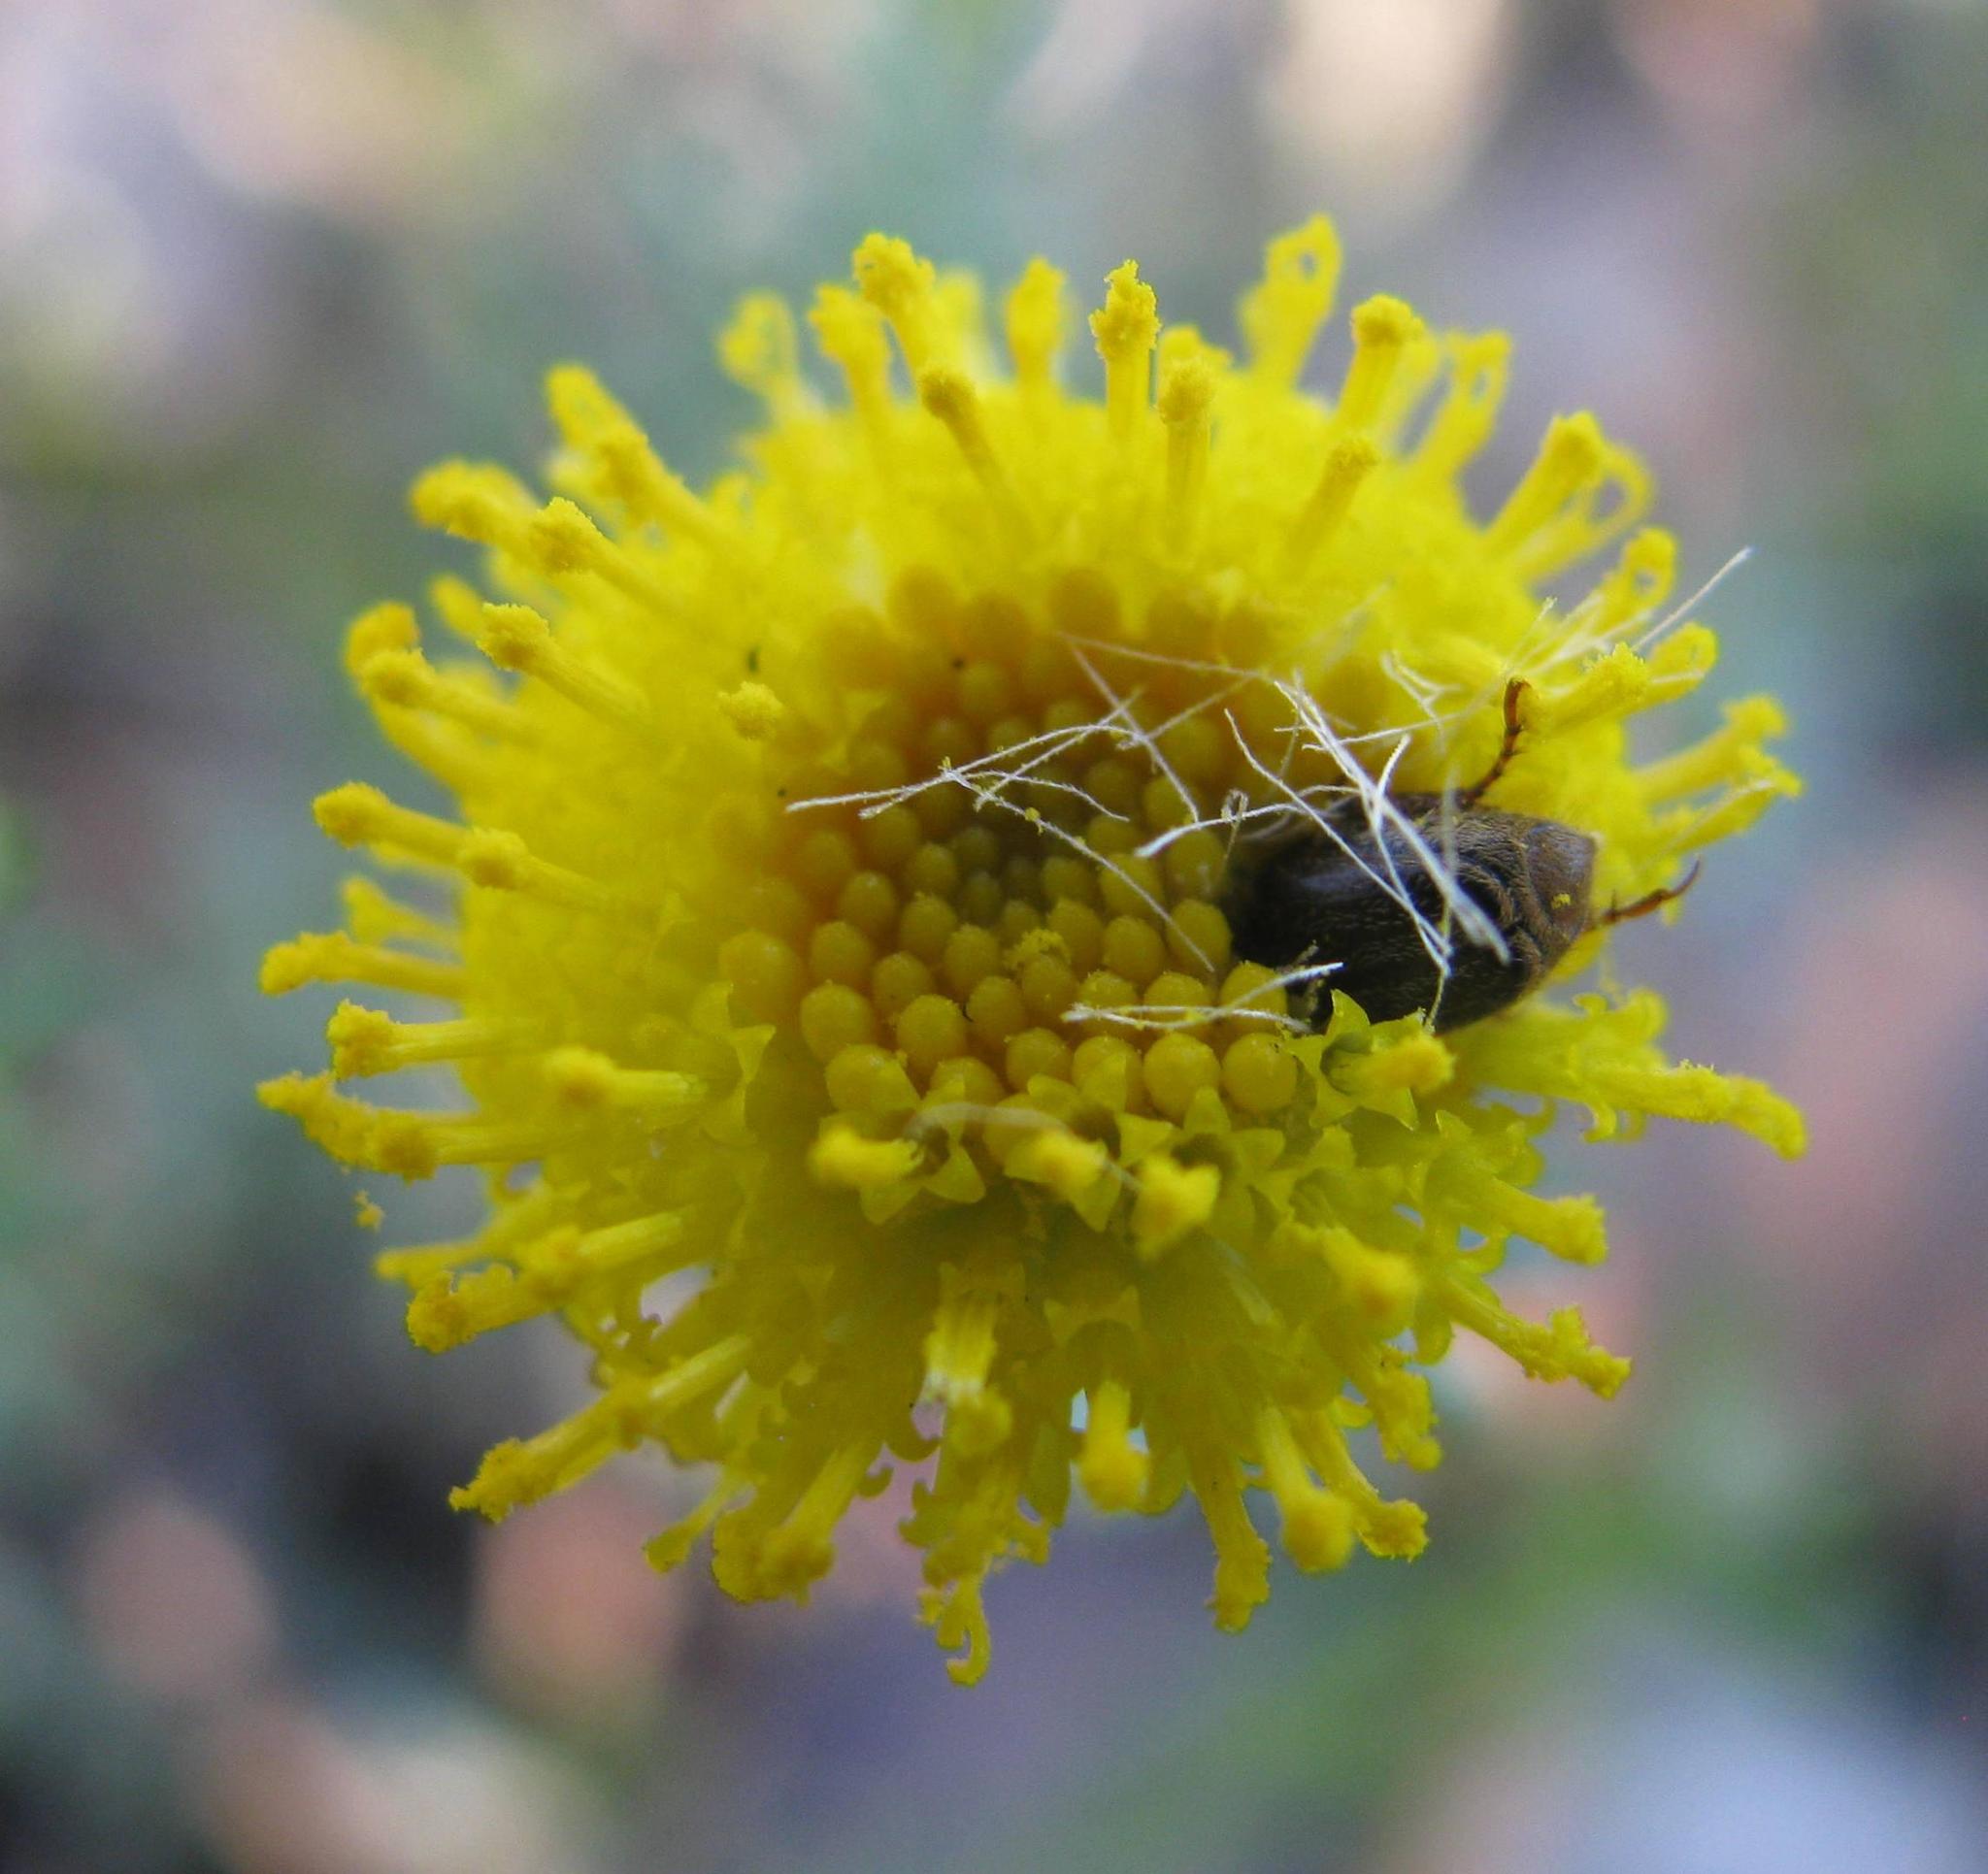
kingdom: Plantae
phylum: Tracheophyta
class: Magnoliopsida
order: Asterales
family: Asteraceae
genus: Chrysocoma
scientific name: Chrysocoma tridentata
